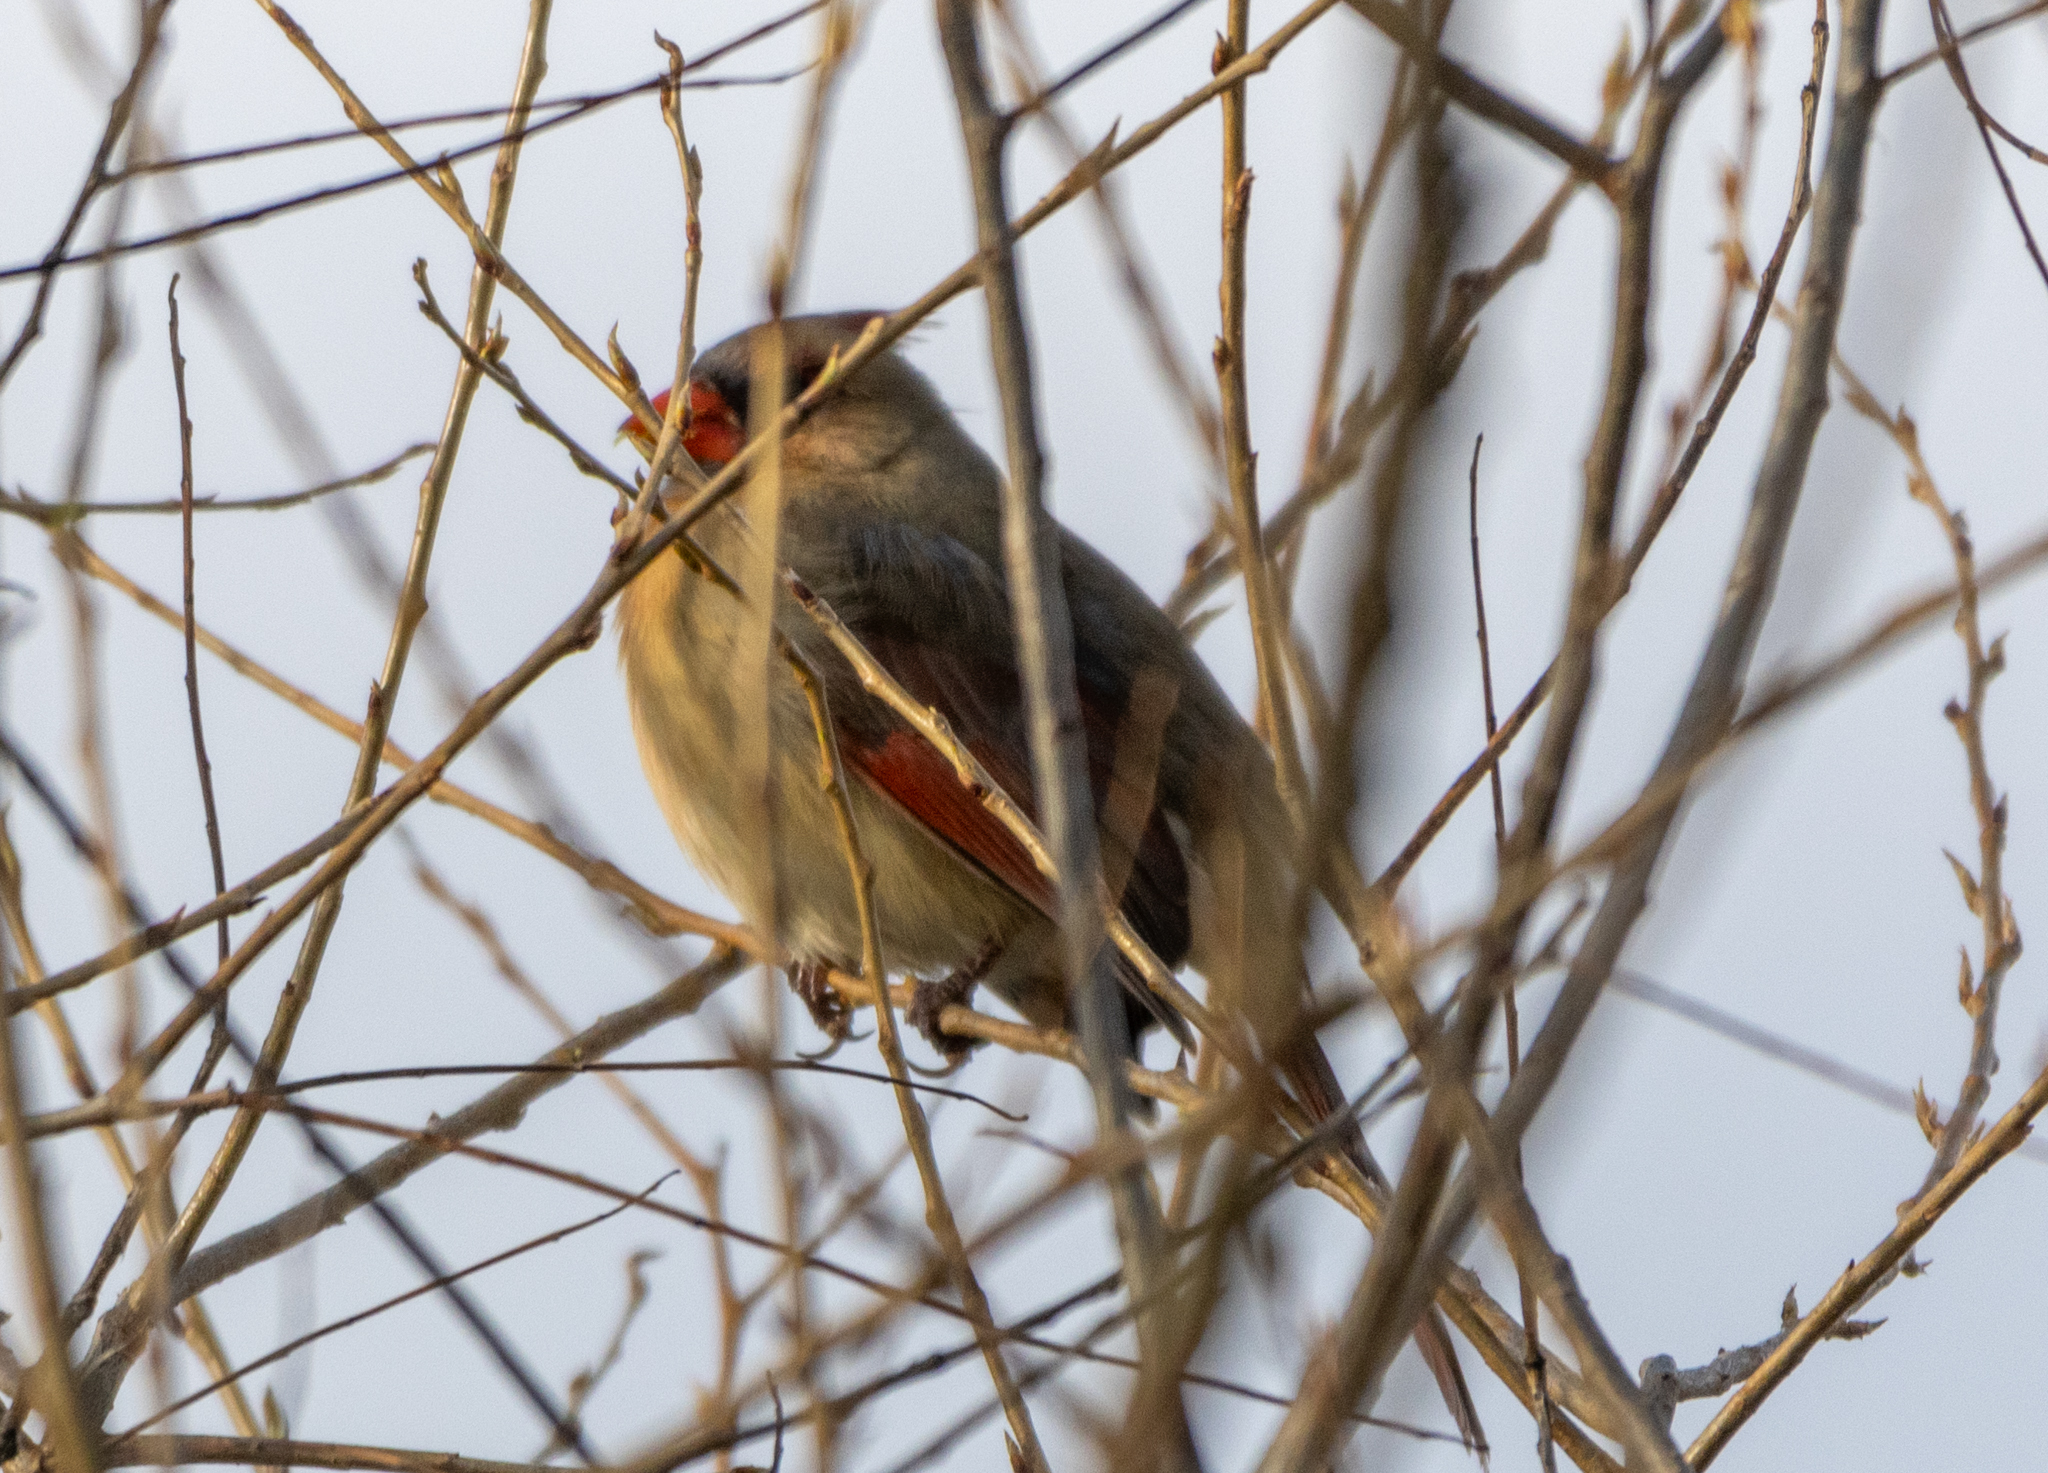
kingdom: Animalia
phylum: Chordata
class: Aves
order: Passeriformes
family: Cardinalidae
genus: Cardinalis
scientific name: Cardinalis cardinalis
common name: Northern cardinal
